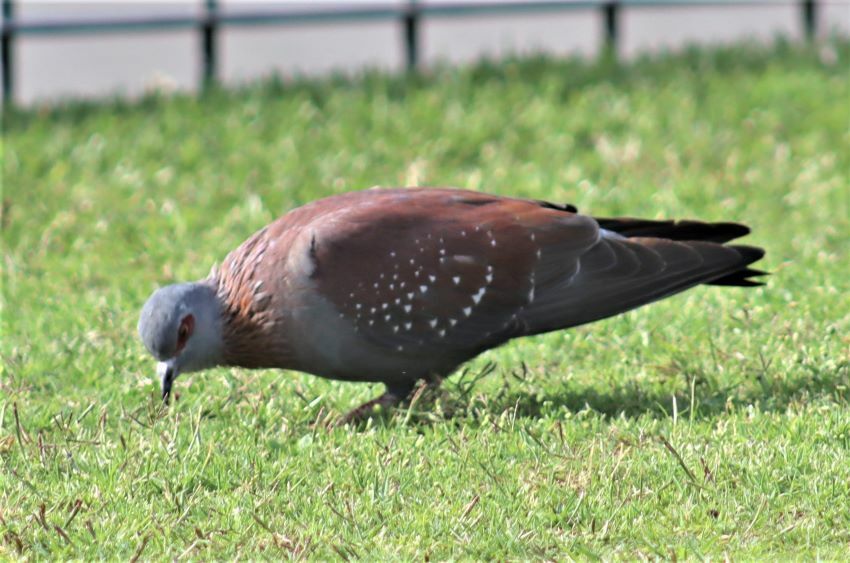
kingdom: Animalia
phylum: Chordata
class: Aves
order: Columbiformes
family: Columbidae
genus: Columba
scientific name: Columba guinea
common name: Speckled pigeon
